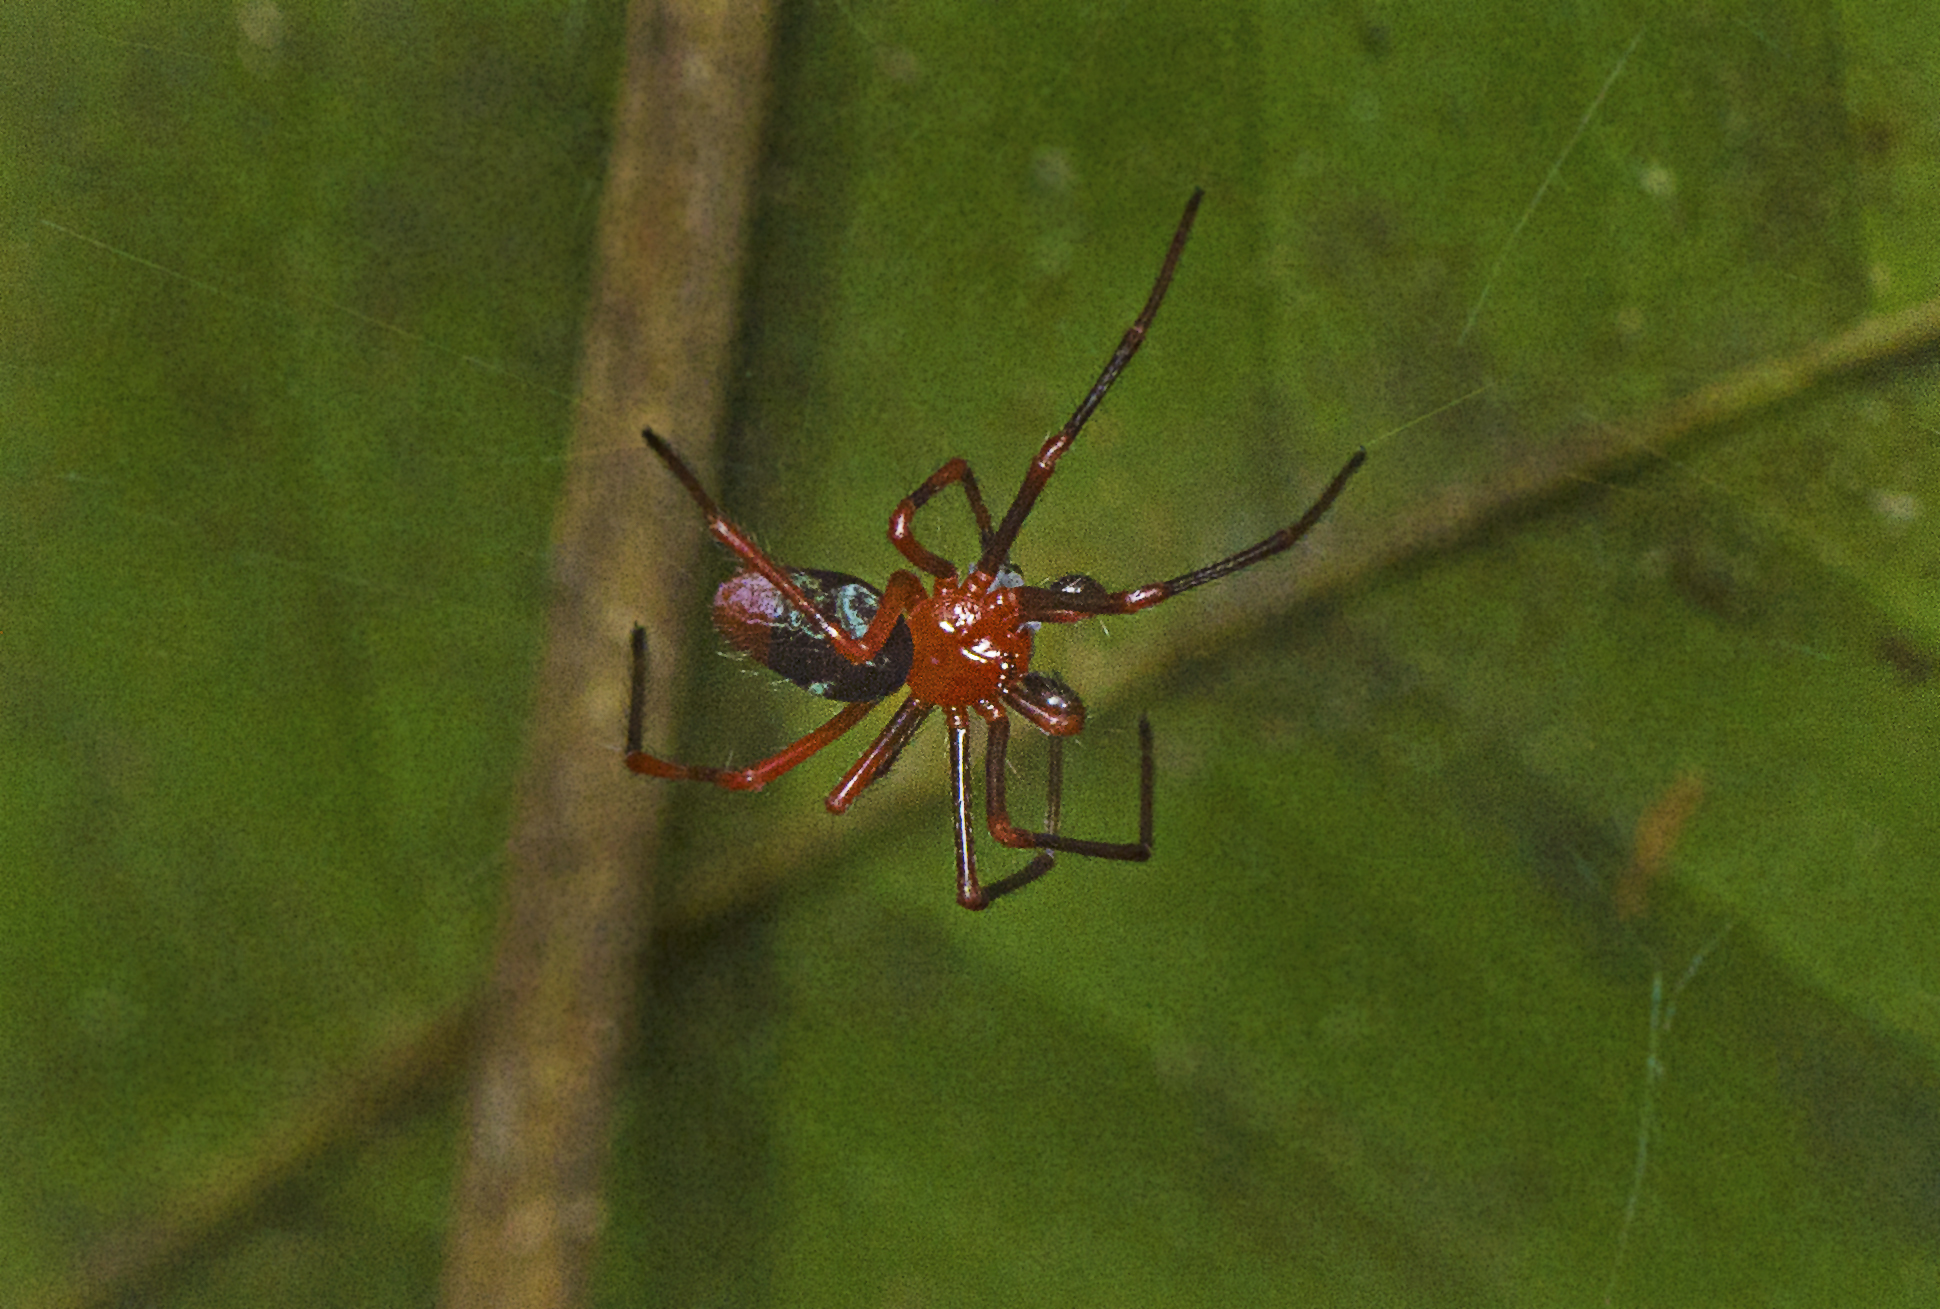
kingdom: Animalia
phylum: Arthropoda
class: Arachnida
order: Araneae
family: Nicodamidae
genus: Dimidamus
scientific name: Dimidamus dimidiatus
